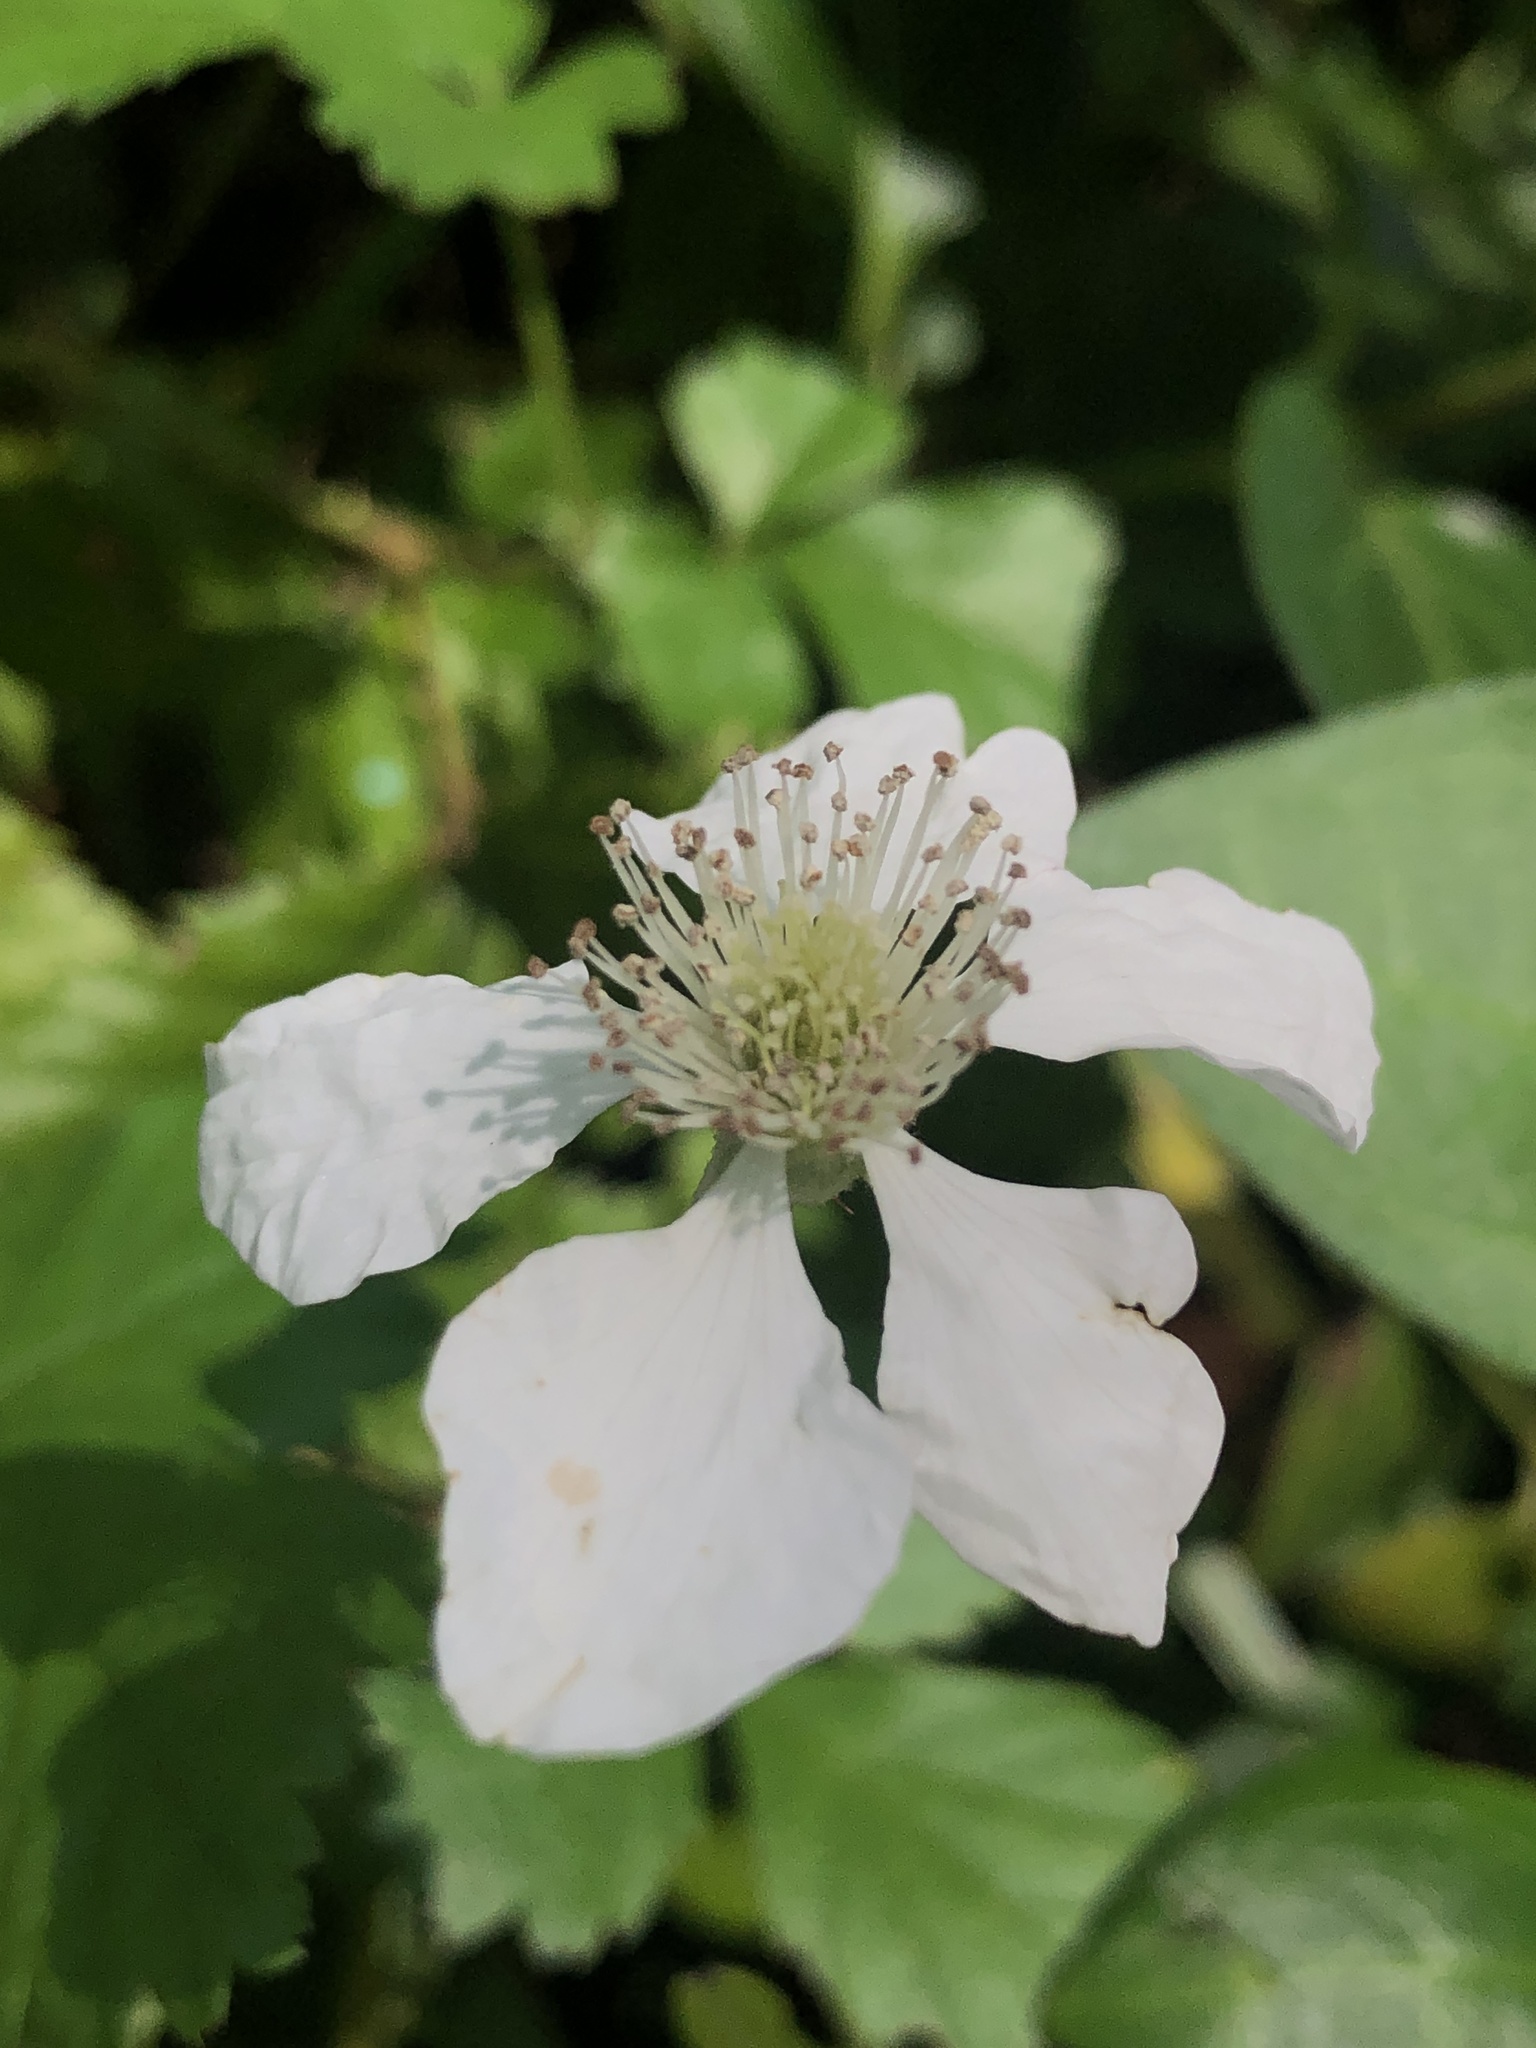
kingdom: Plantae
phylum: Tracheophyta
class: Magnoliopsida
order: Rosales
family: Rosaceae
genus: Rubus
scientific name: Rubus trivialis
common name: Southern dewberry
